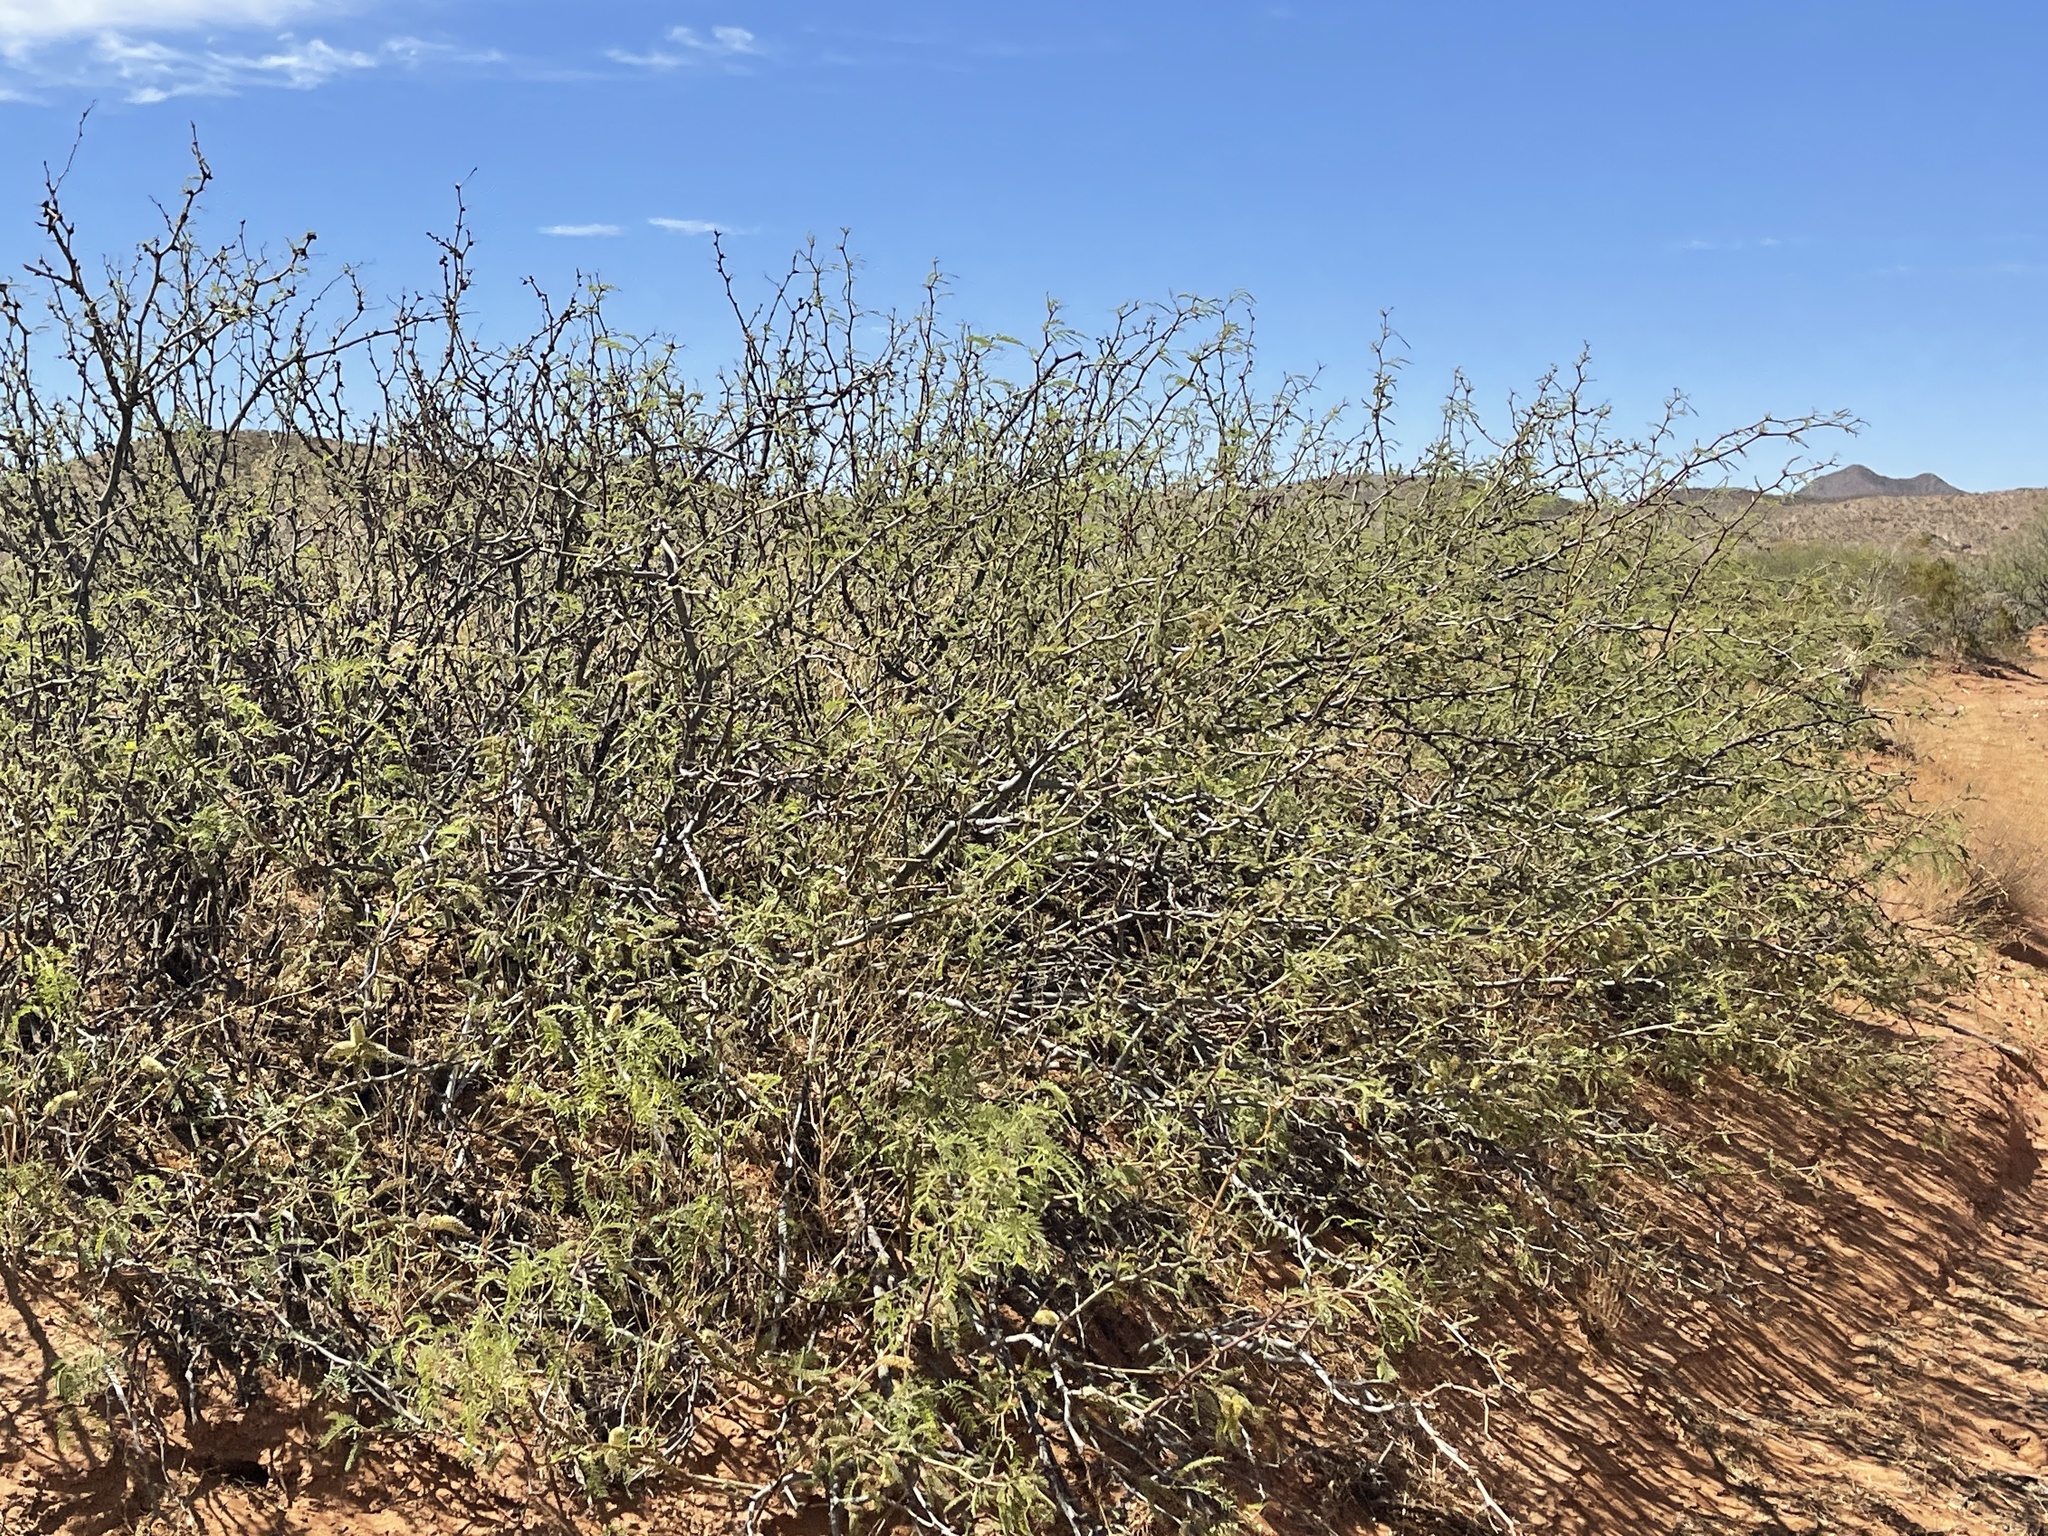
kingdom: Plantae
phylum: Tracheophyta
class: Magnoliopsida
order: Fabales
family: Fabaceae
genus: Prosopis
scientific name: Prosopis glandulosa
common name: Honey mesquite
